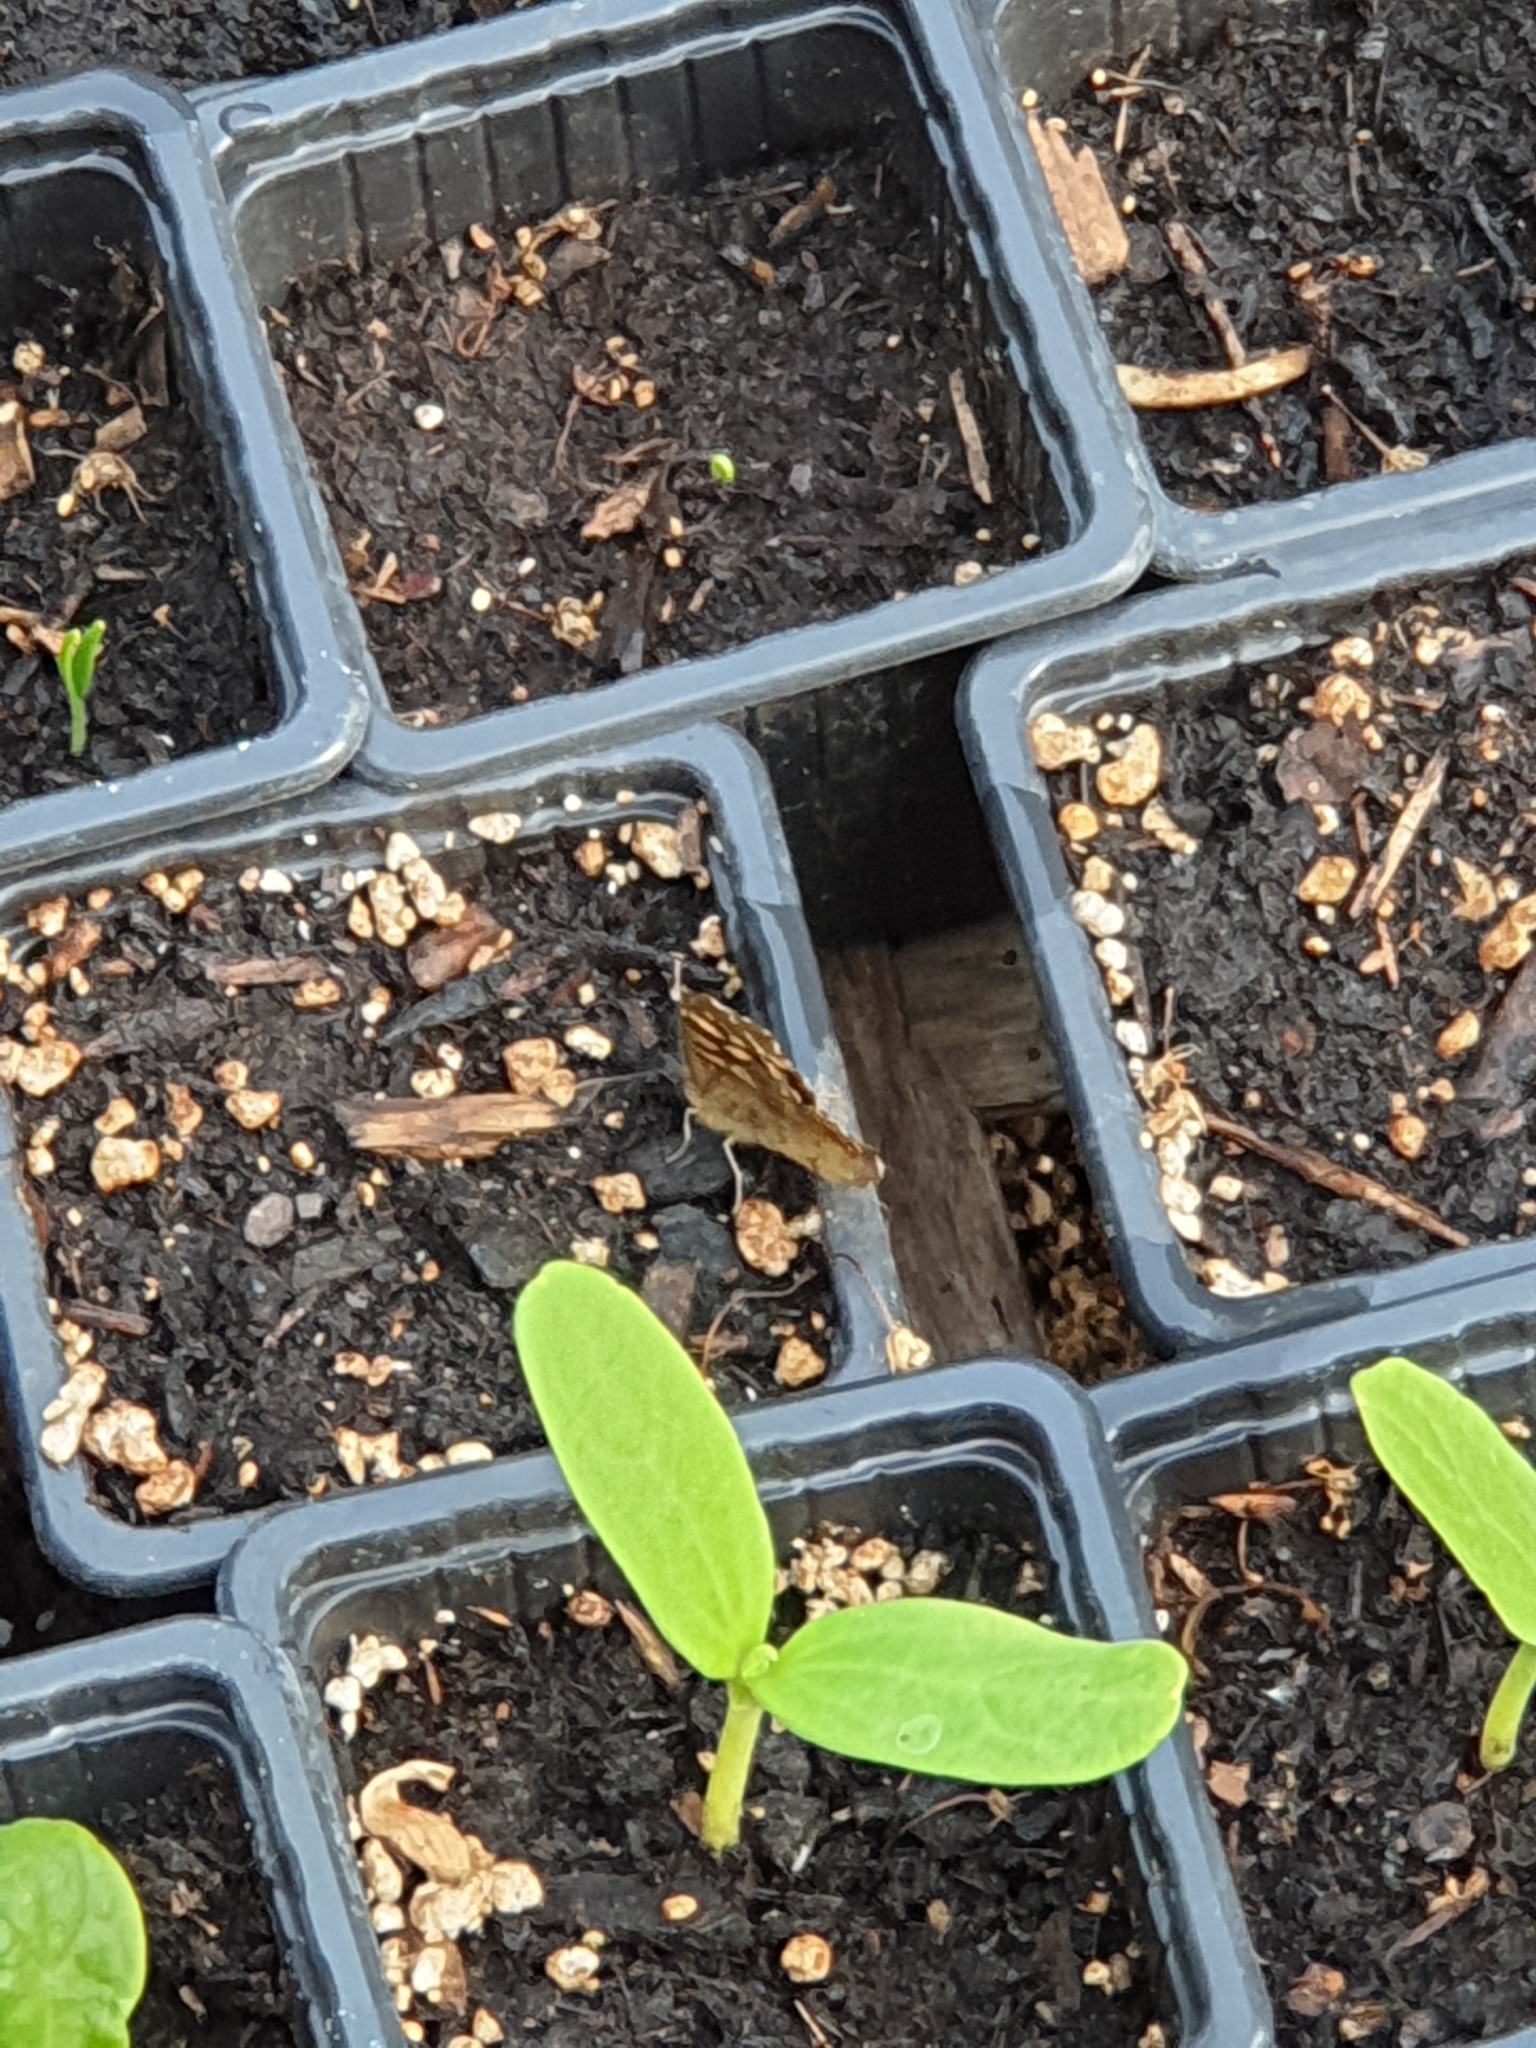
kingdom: Animalia
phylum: Arthropoda
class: Insecta
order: Lepidoptera
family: Nymphalidae
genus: Pararge
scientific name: Pararge aegeria
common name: Speckled wood
